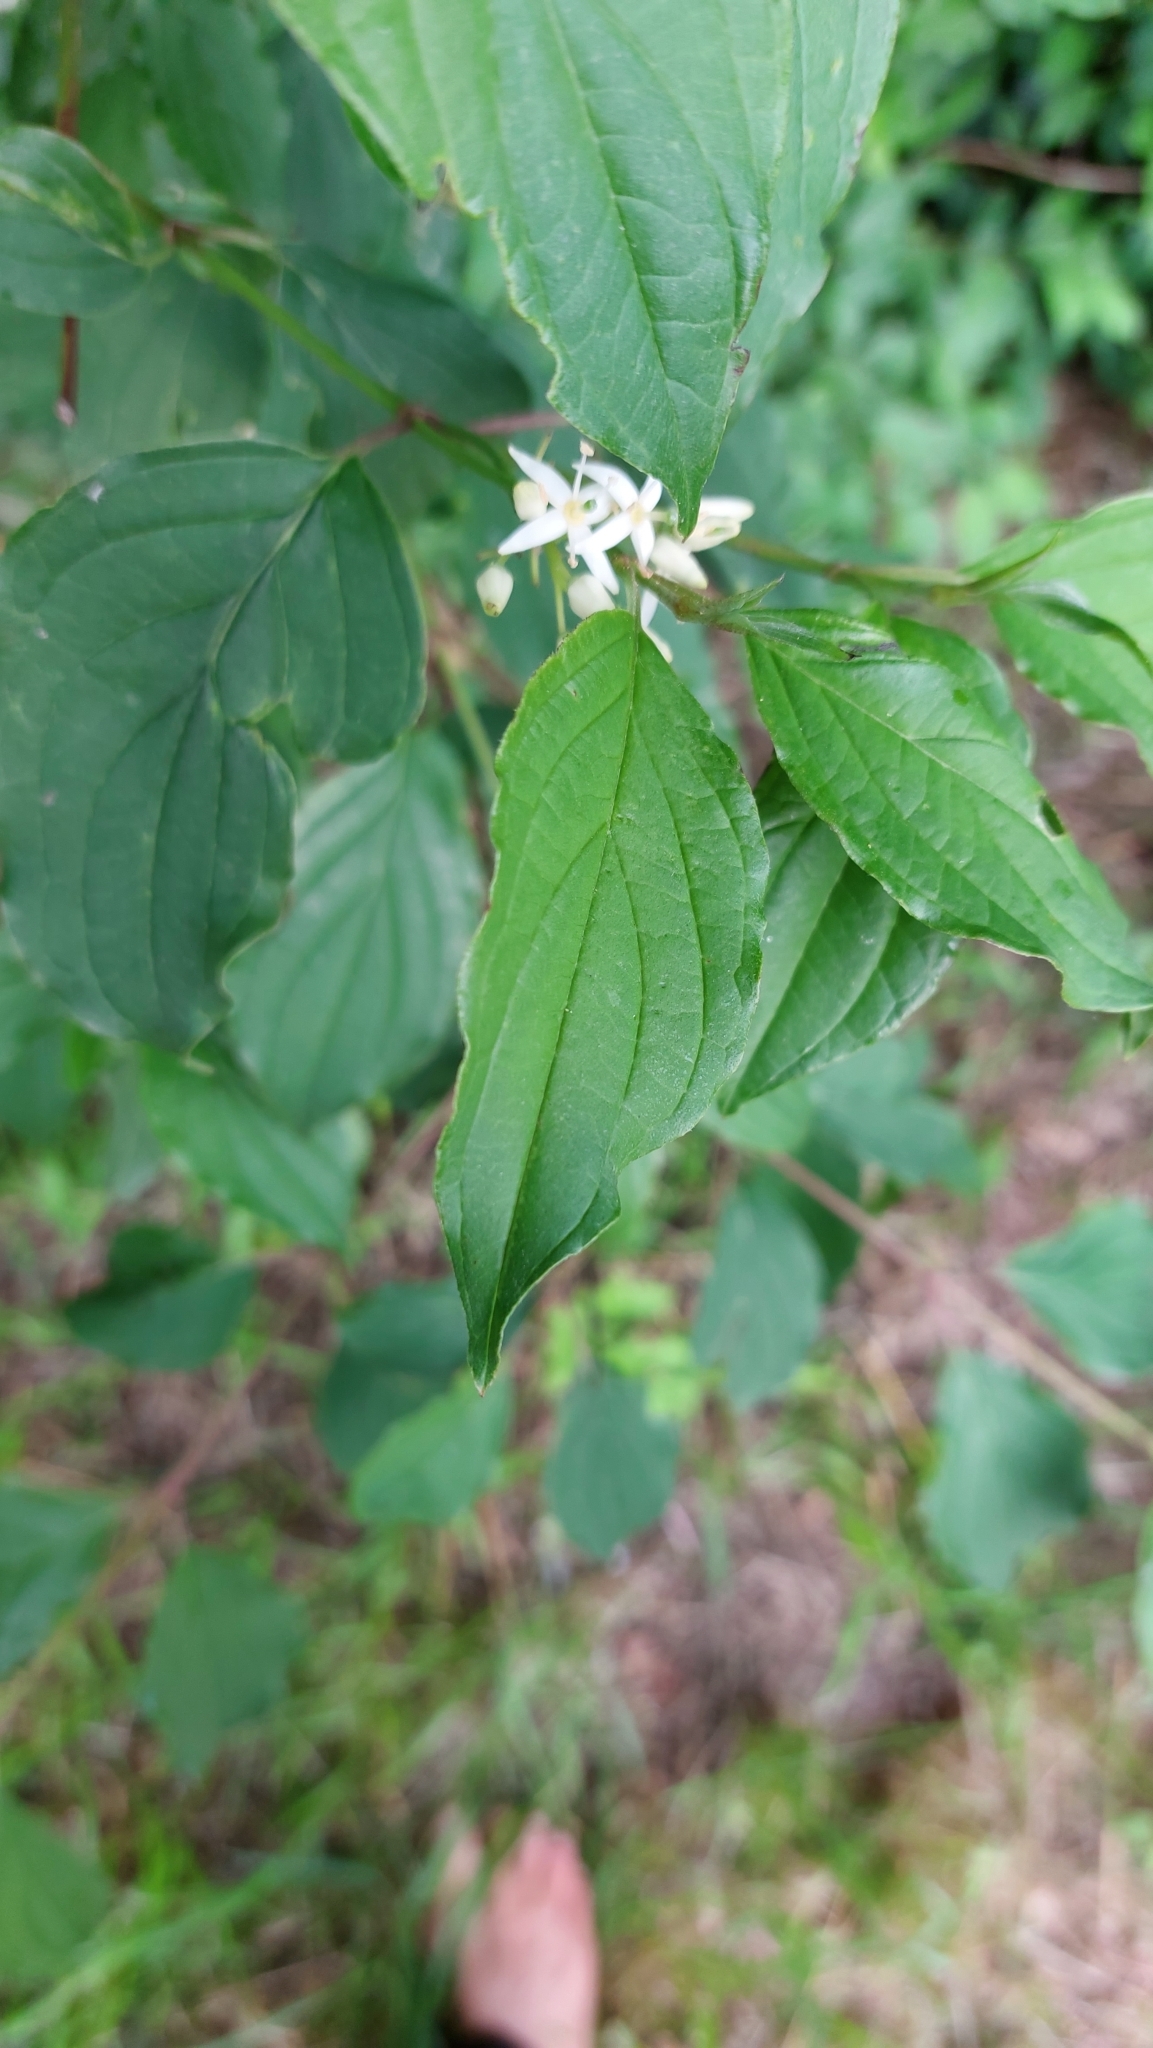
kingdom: Plantae
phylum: Tracheophyta
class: Magnoliopsida
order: Cornales
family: Cornaceae
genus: Cornus
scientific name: Cornus sanguinea
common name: Dogwood
